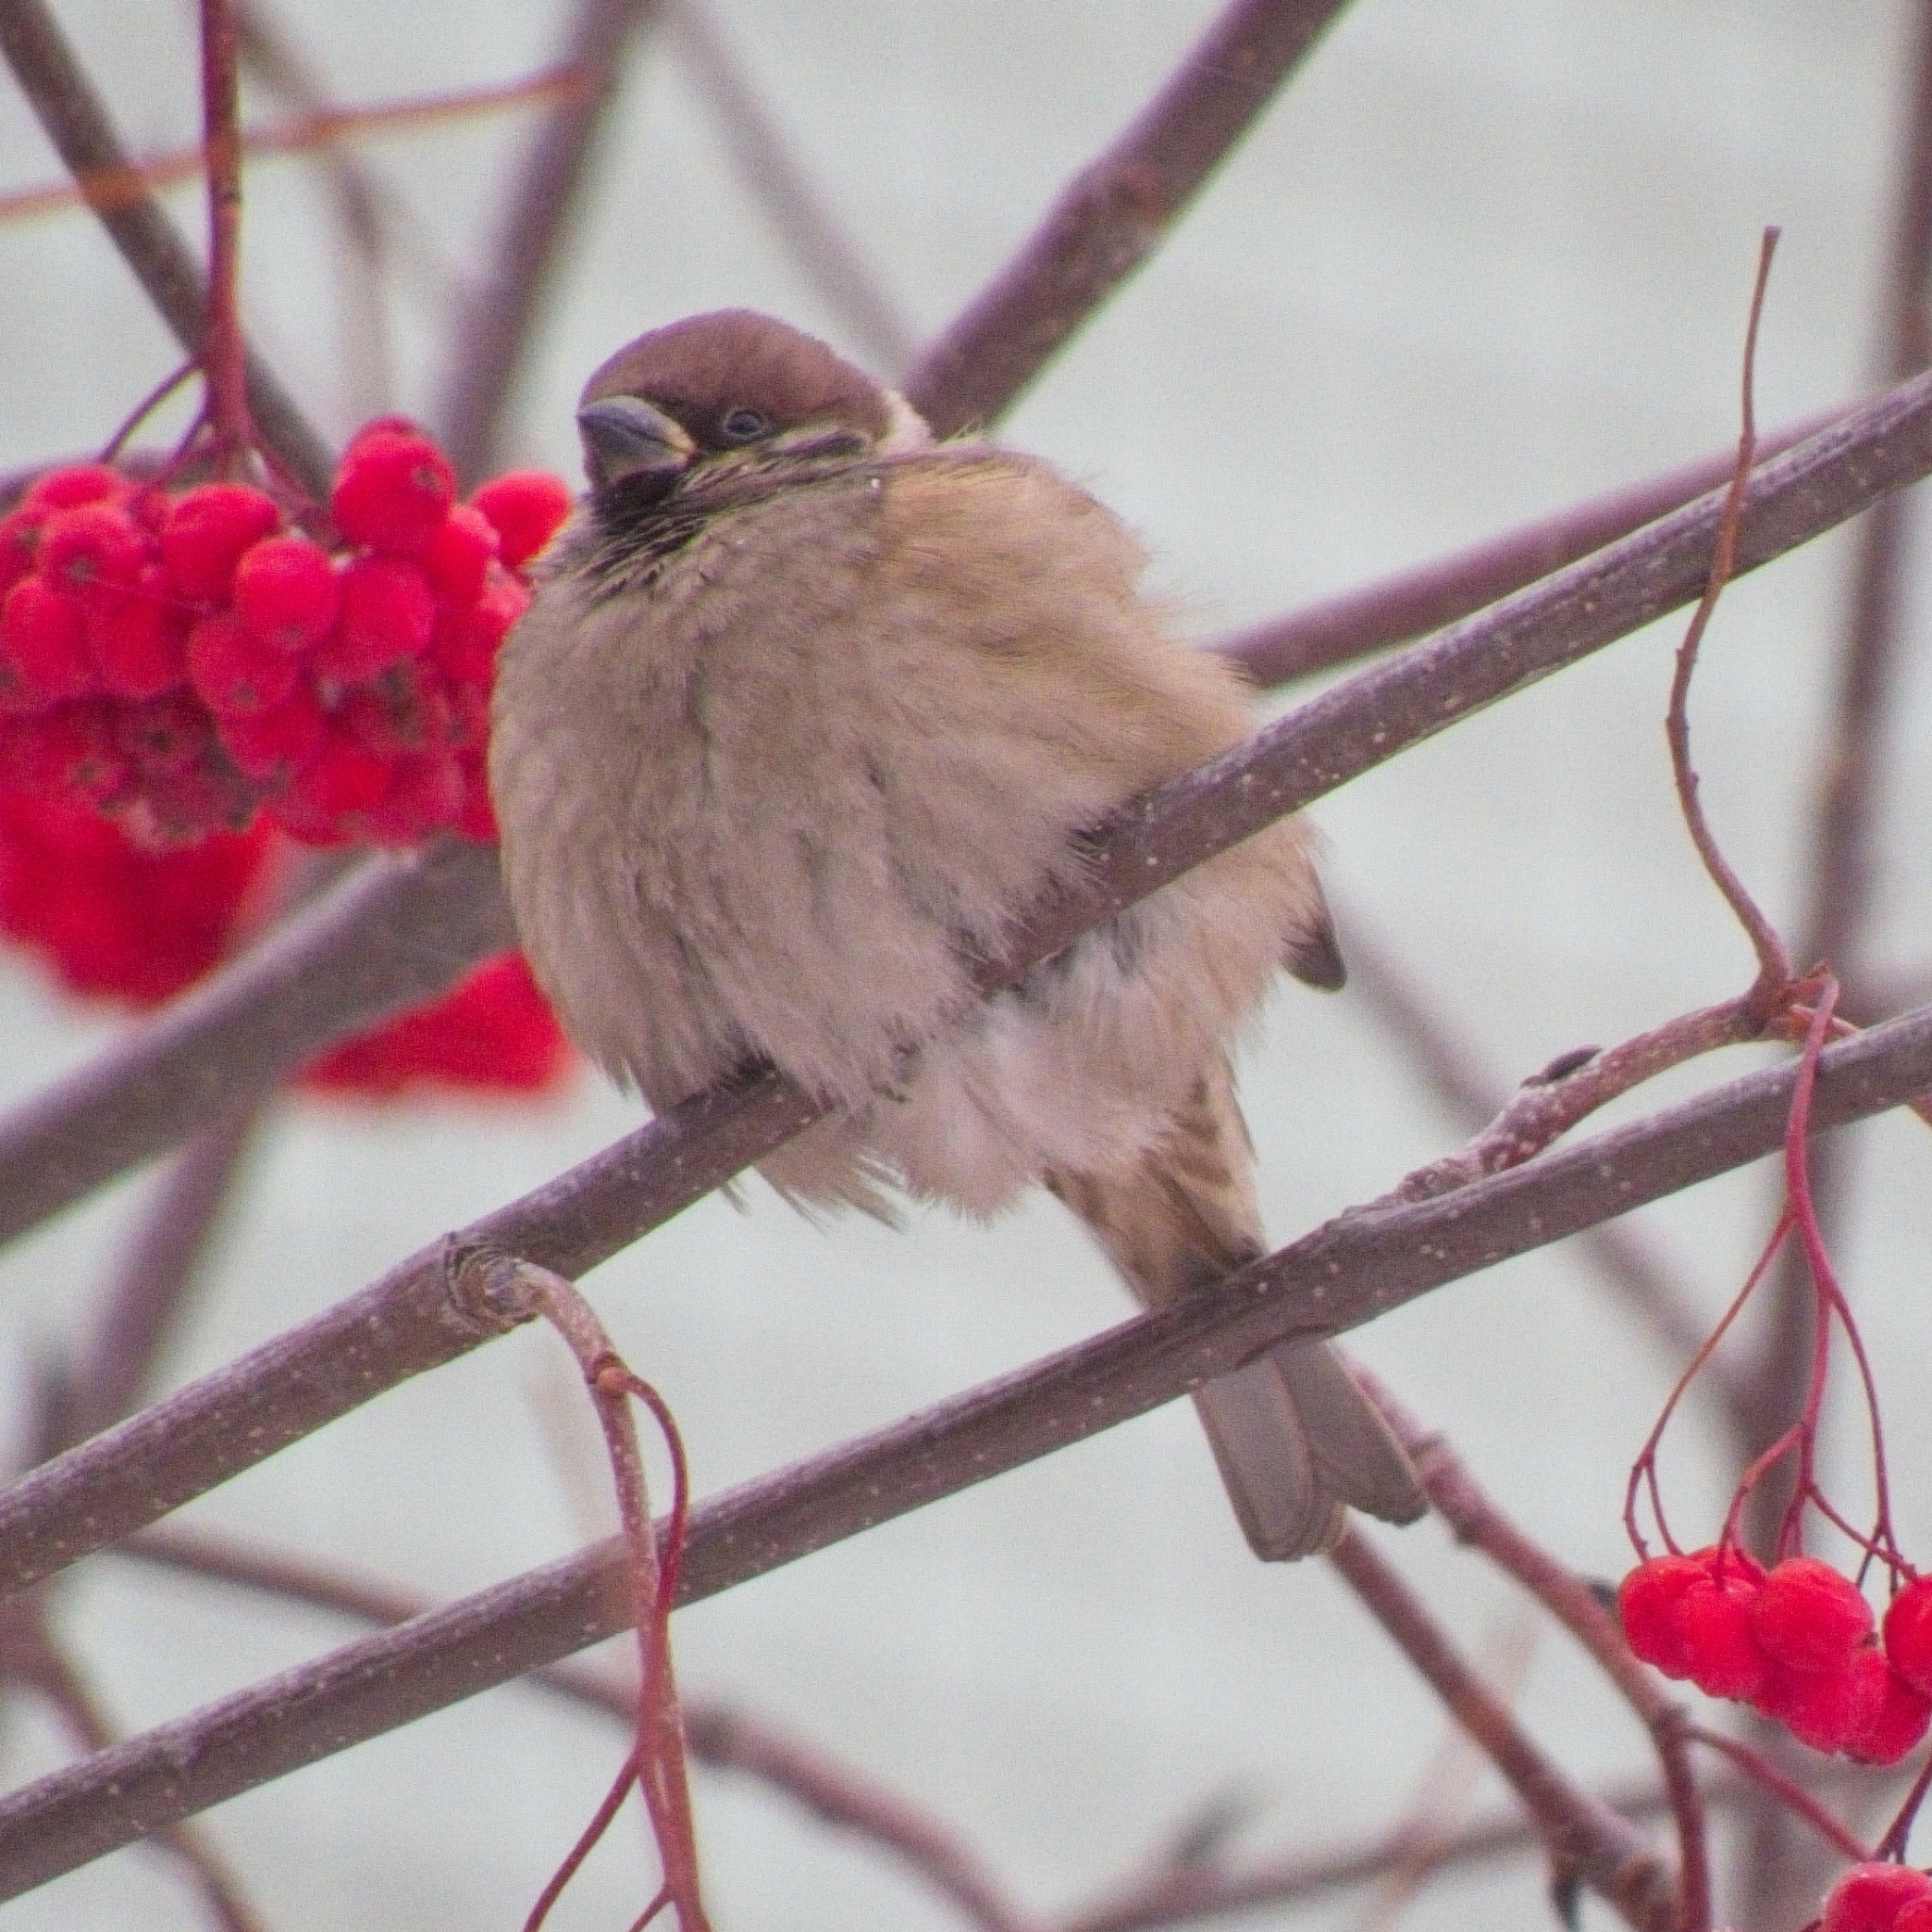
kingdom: Animalia
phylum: Chordata
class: Aves
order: Passeriformes
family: Passeridae
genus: Passer
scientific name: Passer montanus
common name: Eurasian tree sparrow
